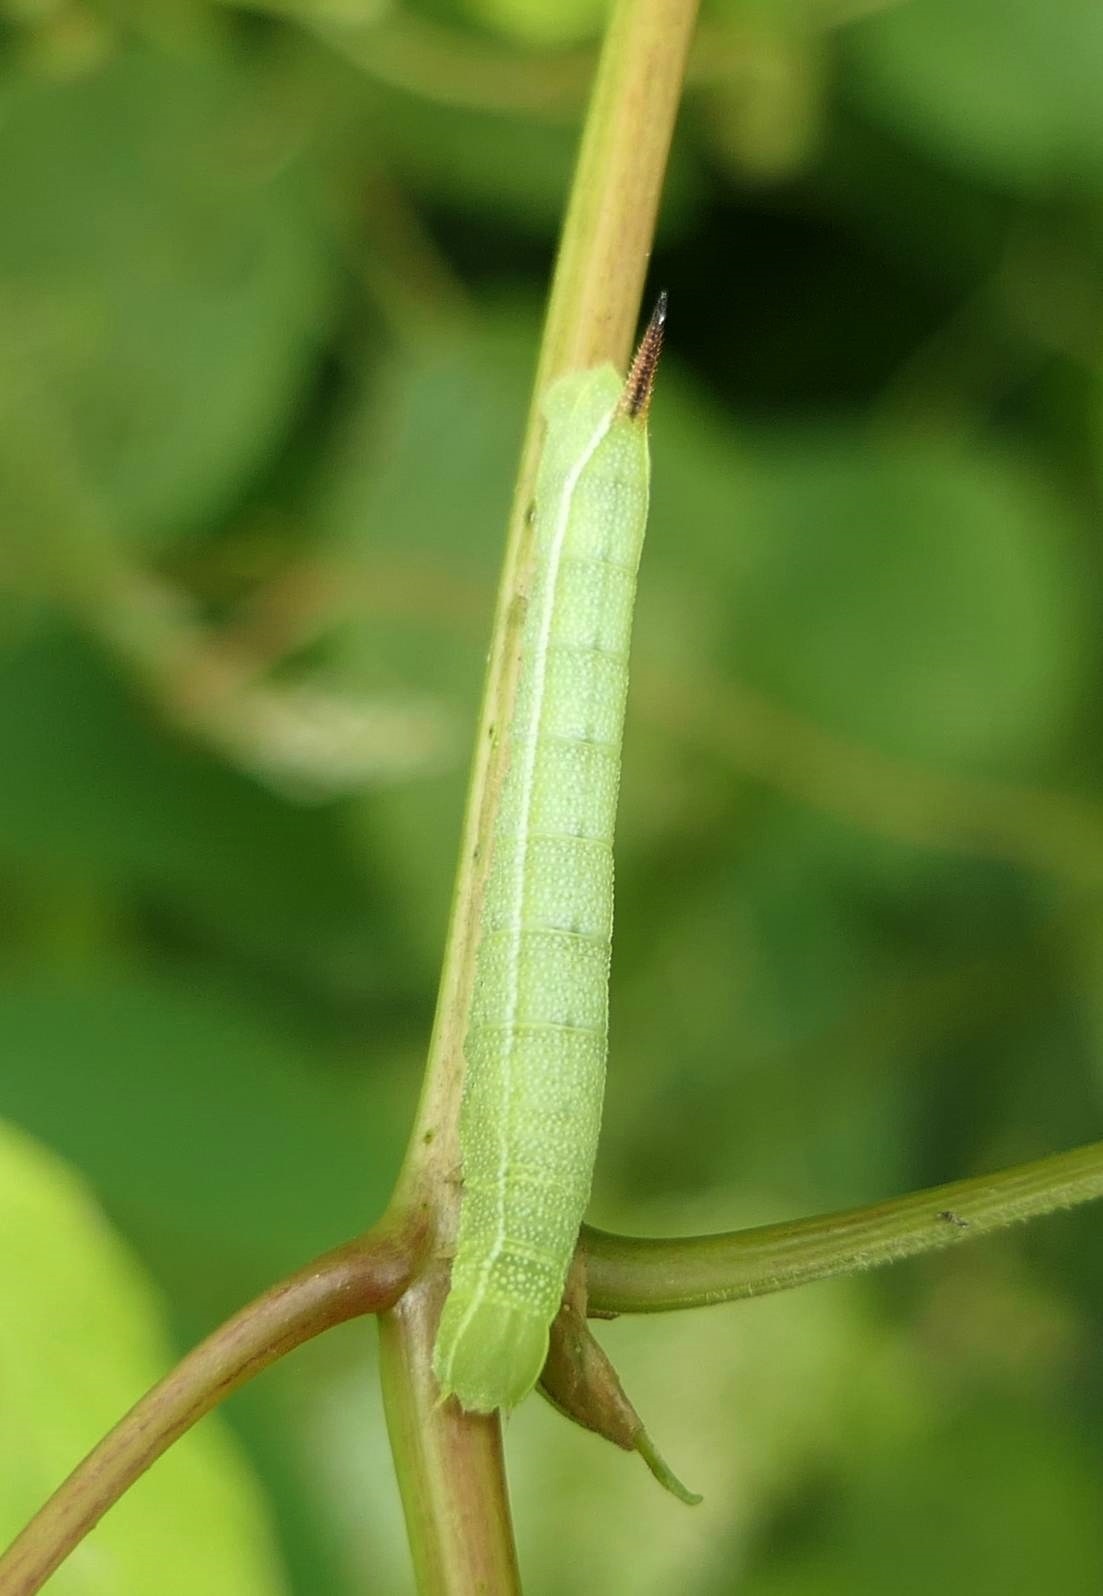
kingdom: Animalia
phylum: Arthropoda
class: Insecta
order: Lepidoptera
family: Sphingidae
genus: Amphion
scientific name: Amphion floridensis
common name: Nessus sphinx
